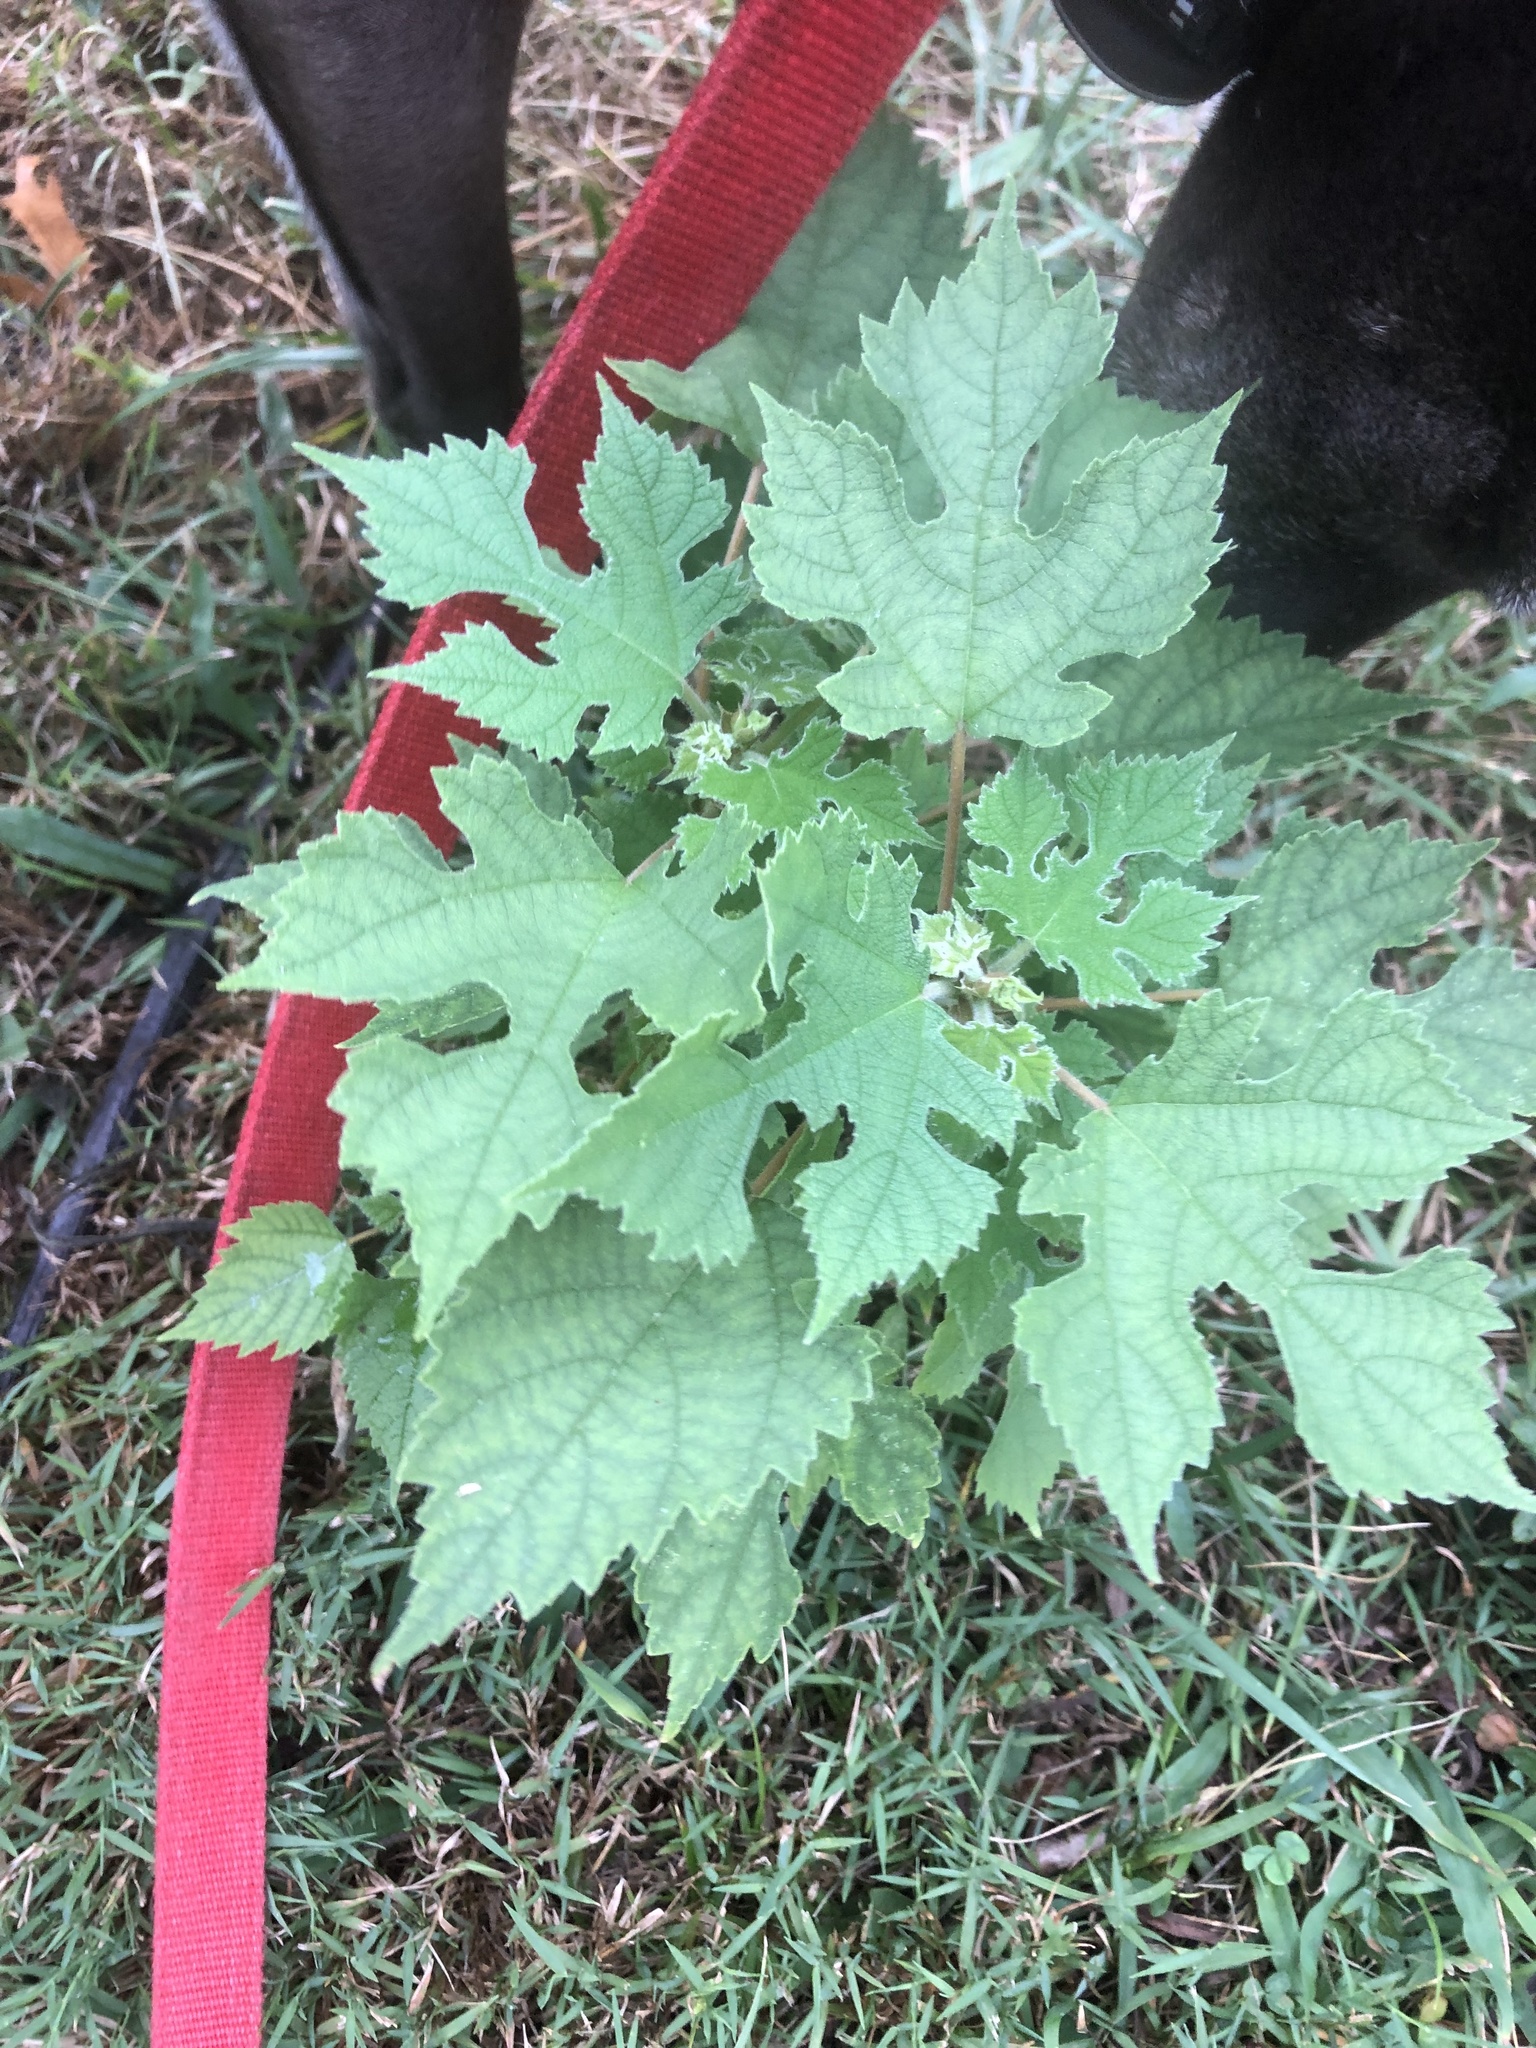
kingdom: Plantae
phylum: Tracheophyta
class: Magnoliopsida
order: Rosales
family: Moraceae
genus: Broussonetia
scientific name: Broussonetia papyrifera
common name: Paper mulberry
